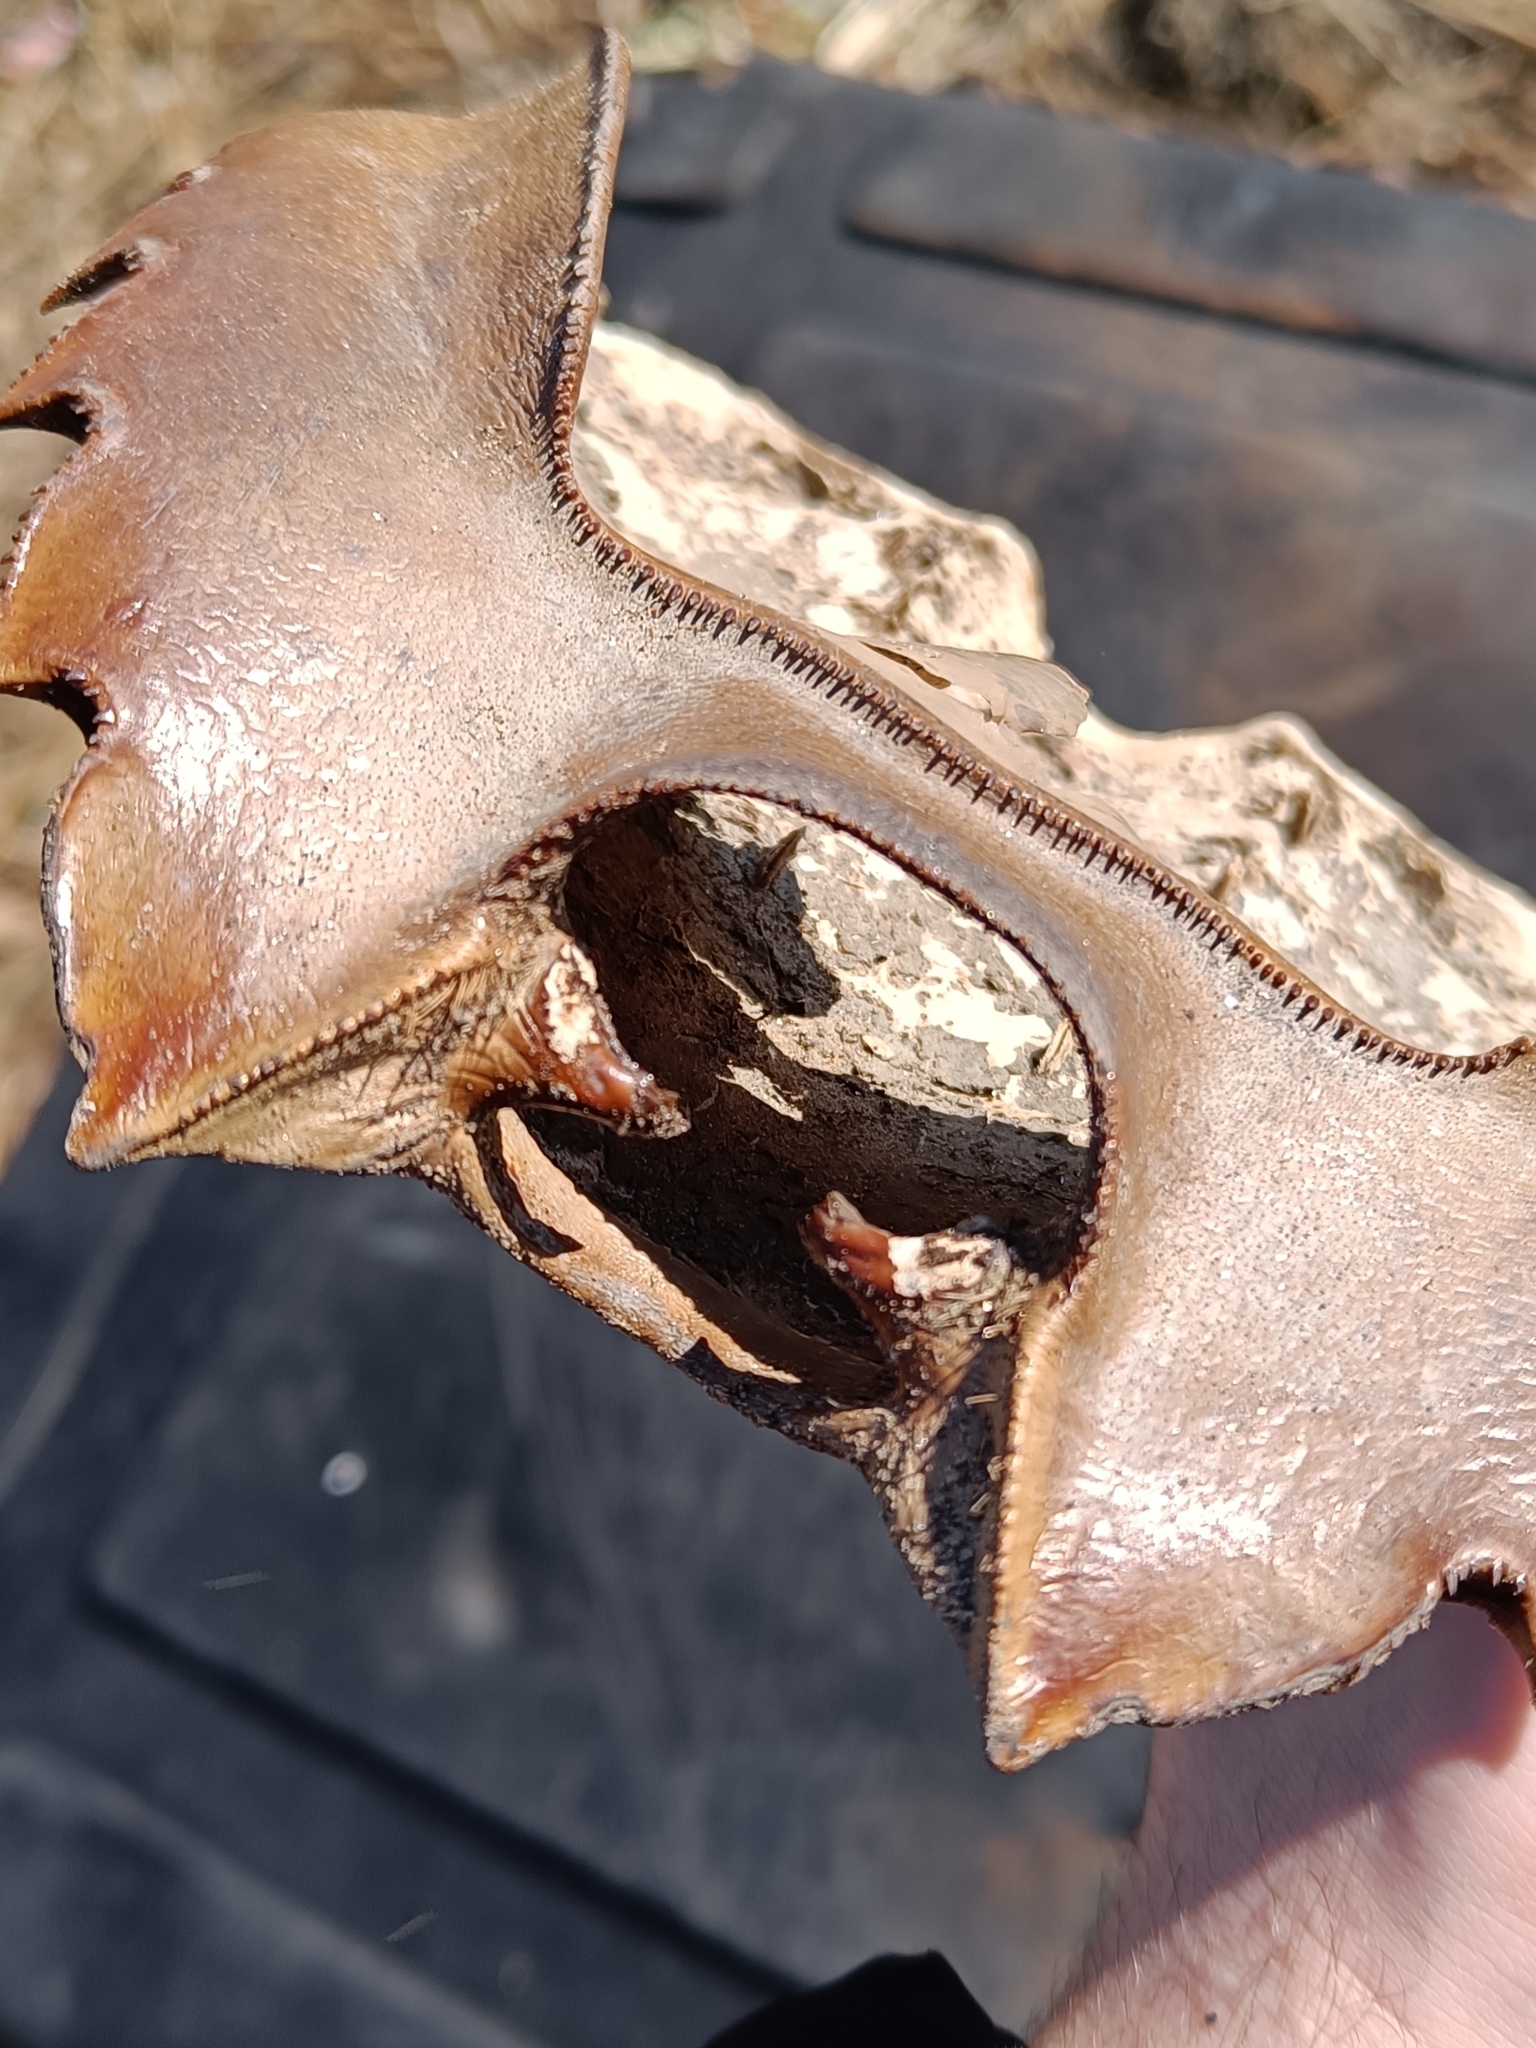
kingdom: Animalia
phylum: Arthropoda
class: Merostomata
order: Xiphosurida
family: Limulidae
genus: Limulus
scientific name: Limulus polyphemus
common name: Horseshoe crab
